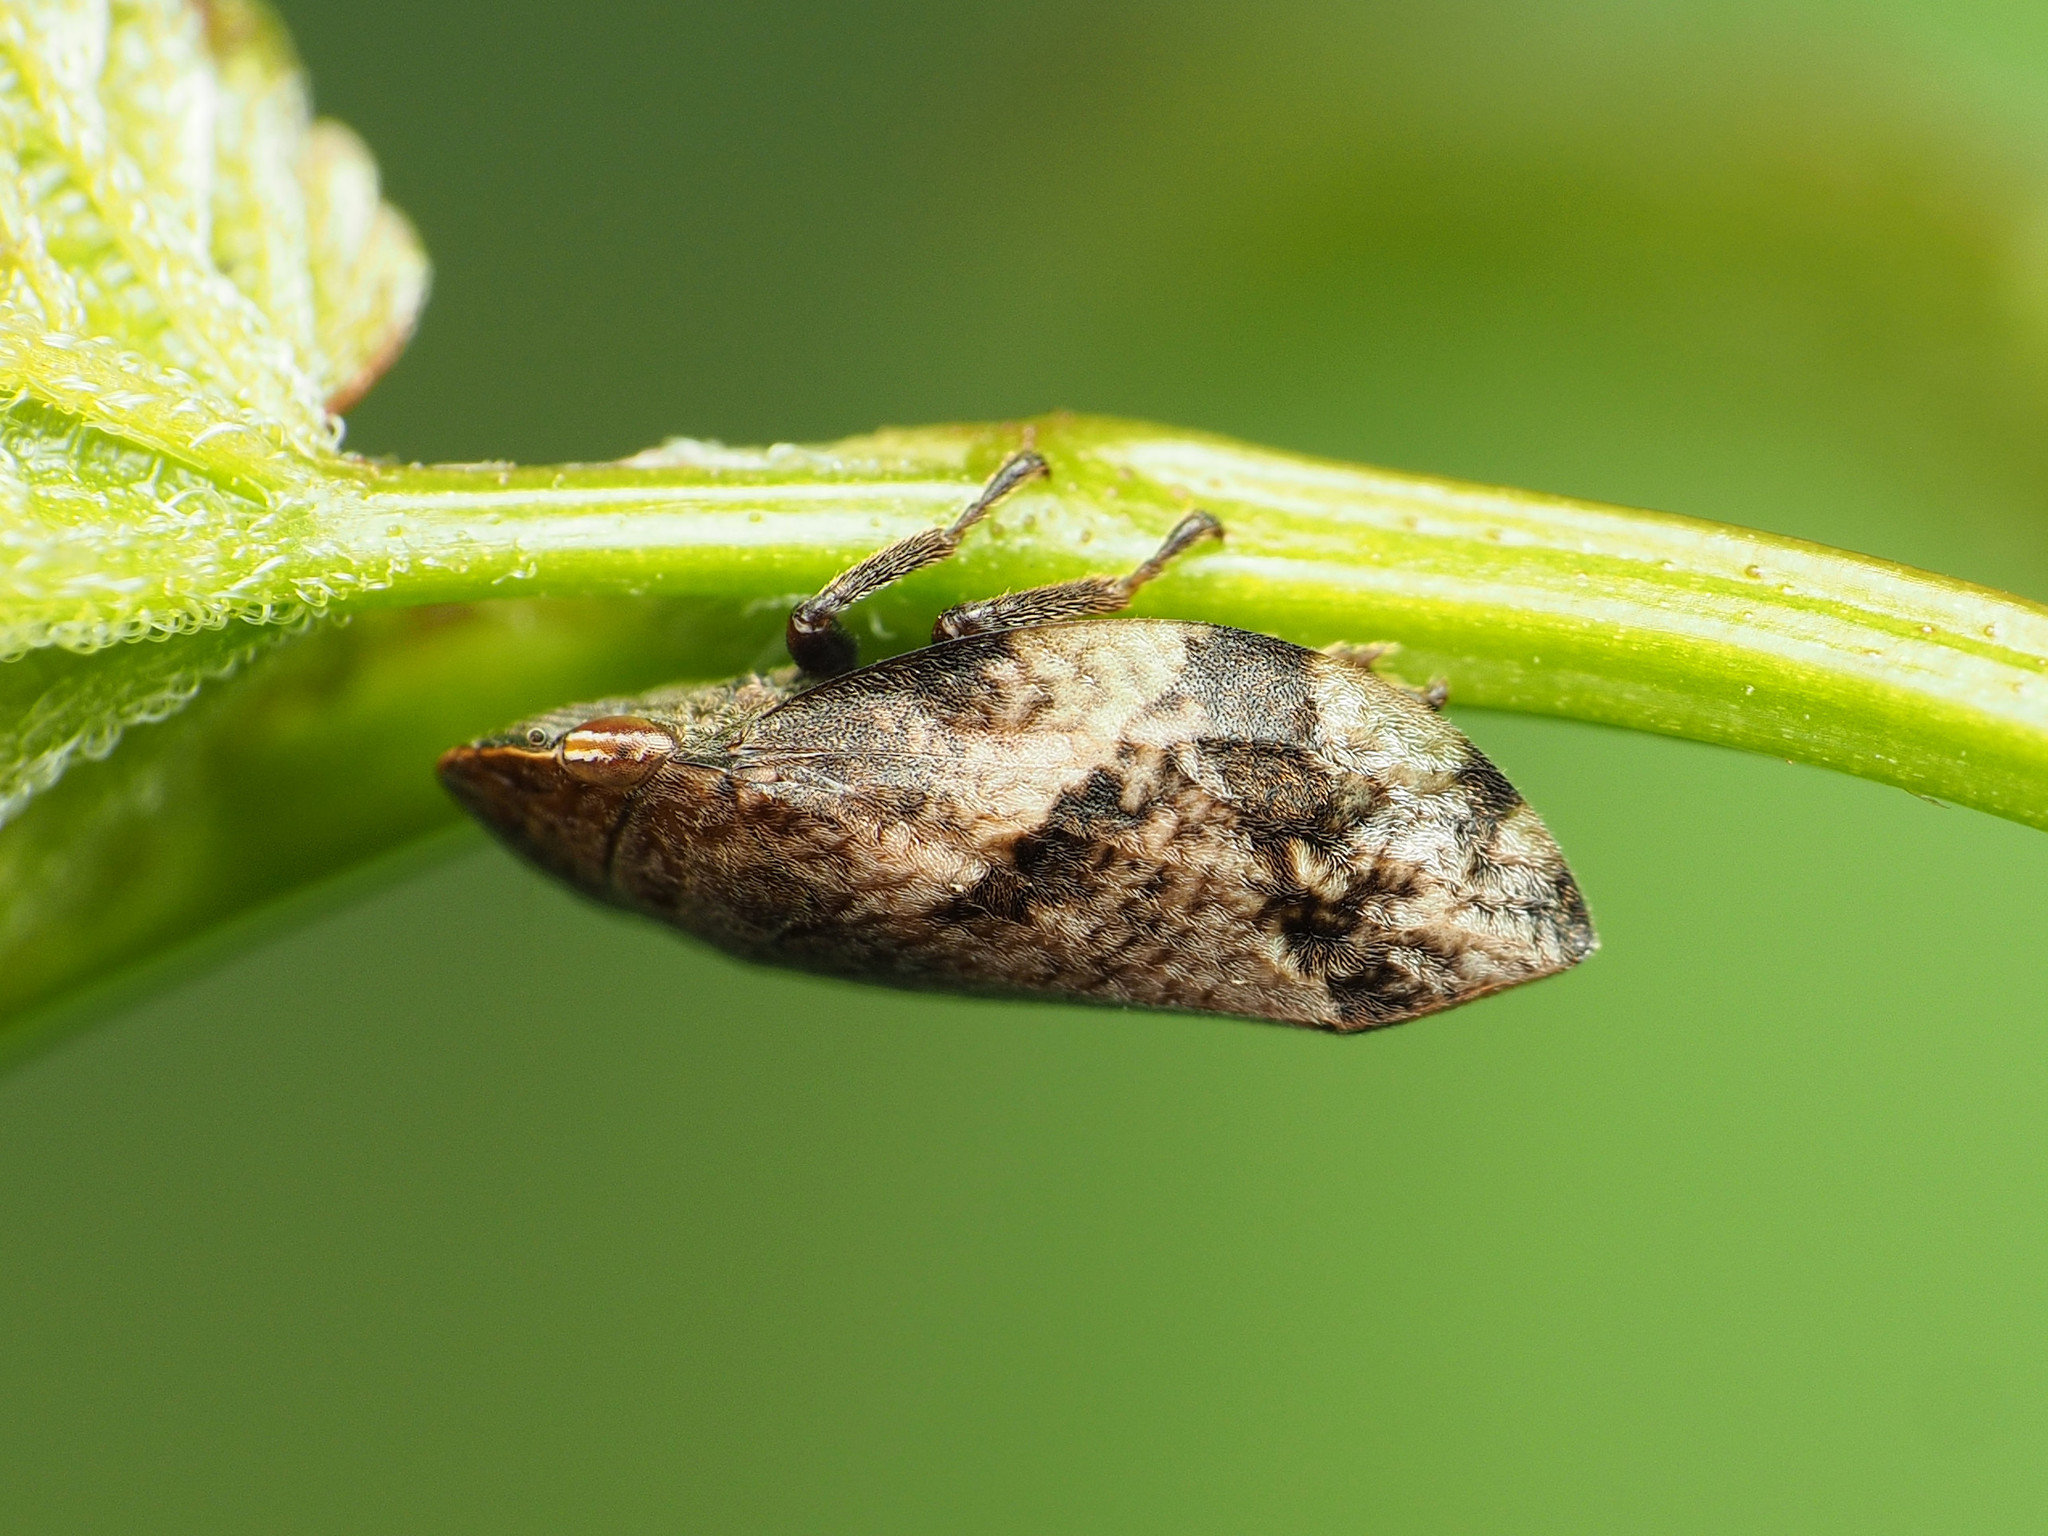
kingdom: Animalia
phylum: Arthropoda
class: Insecta
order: Hemiptera
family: Aphrophoridae
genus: Lepyronia
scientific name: Lepyronia quadrangularis
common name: Diamond-backed spittlebug
